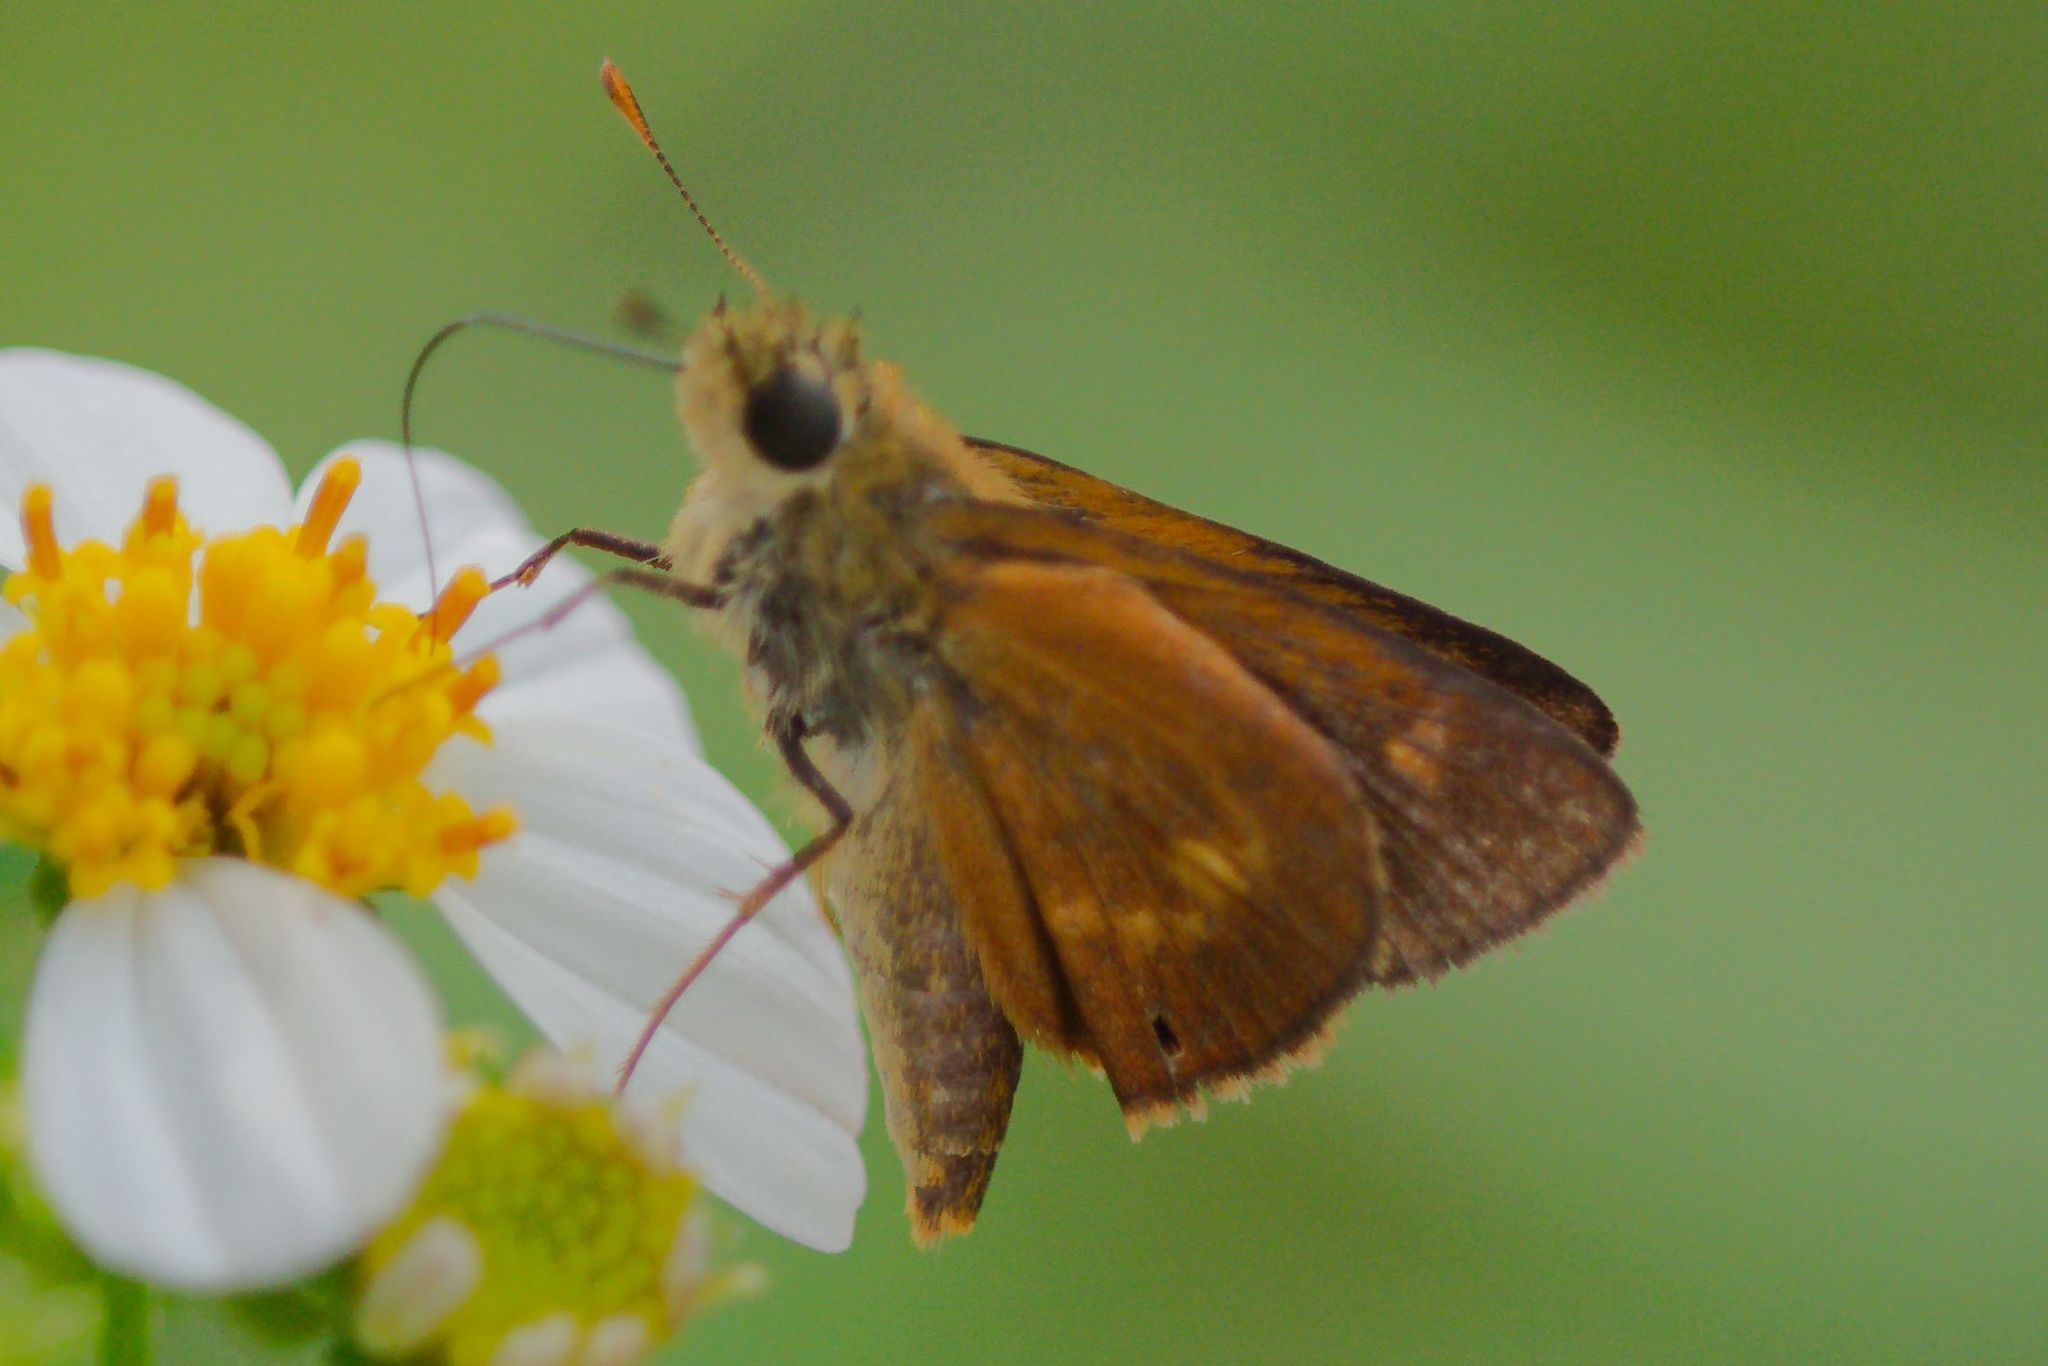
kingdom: Animalia
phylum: Arthropoda
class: Insecta
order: Lepidoptera
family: Hesperiidae
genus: Polites
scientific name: Polites otho
